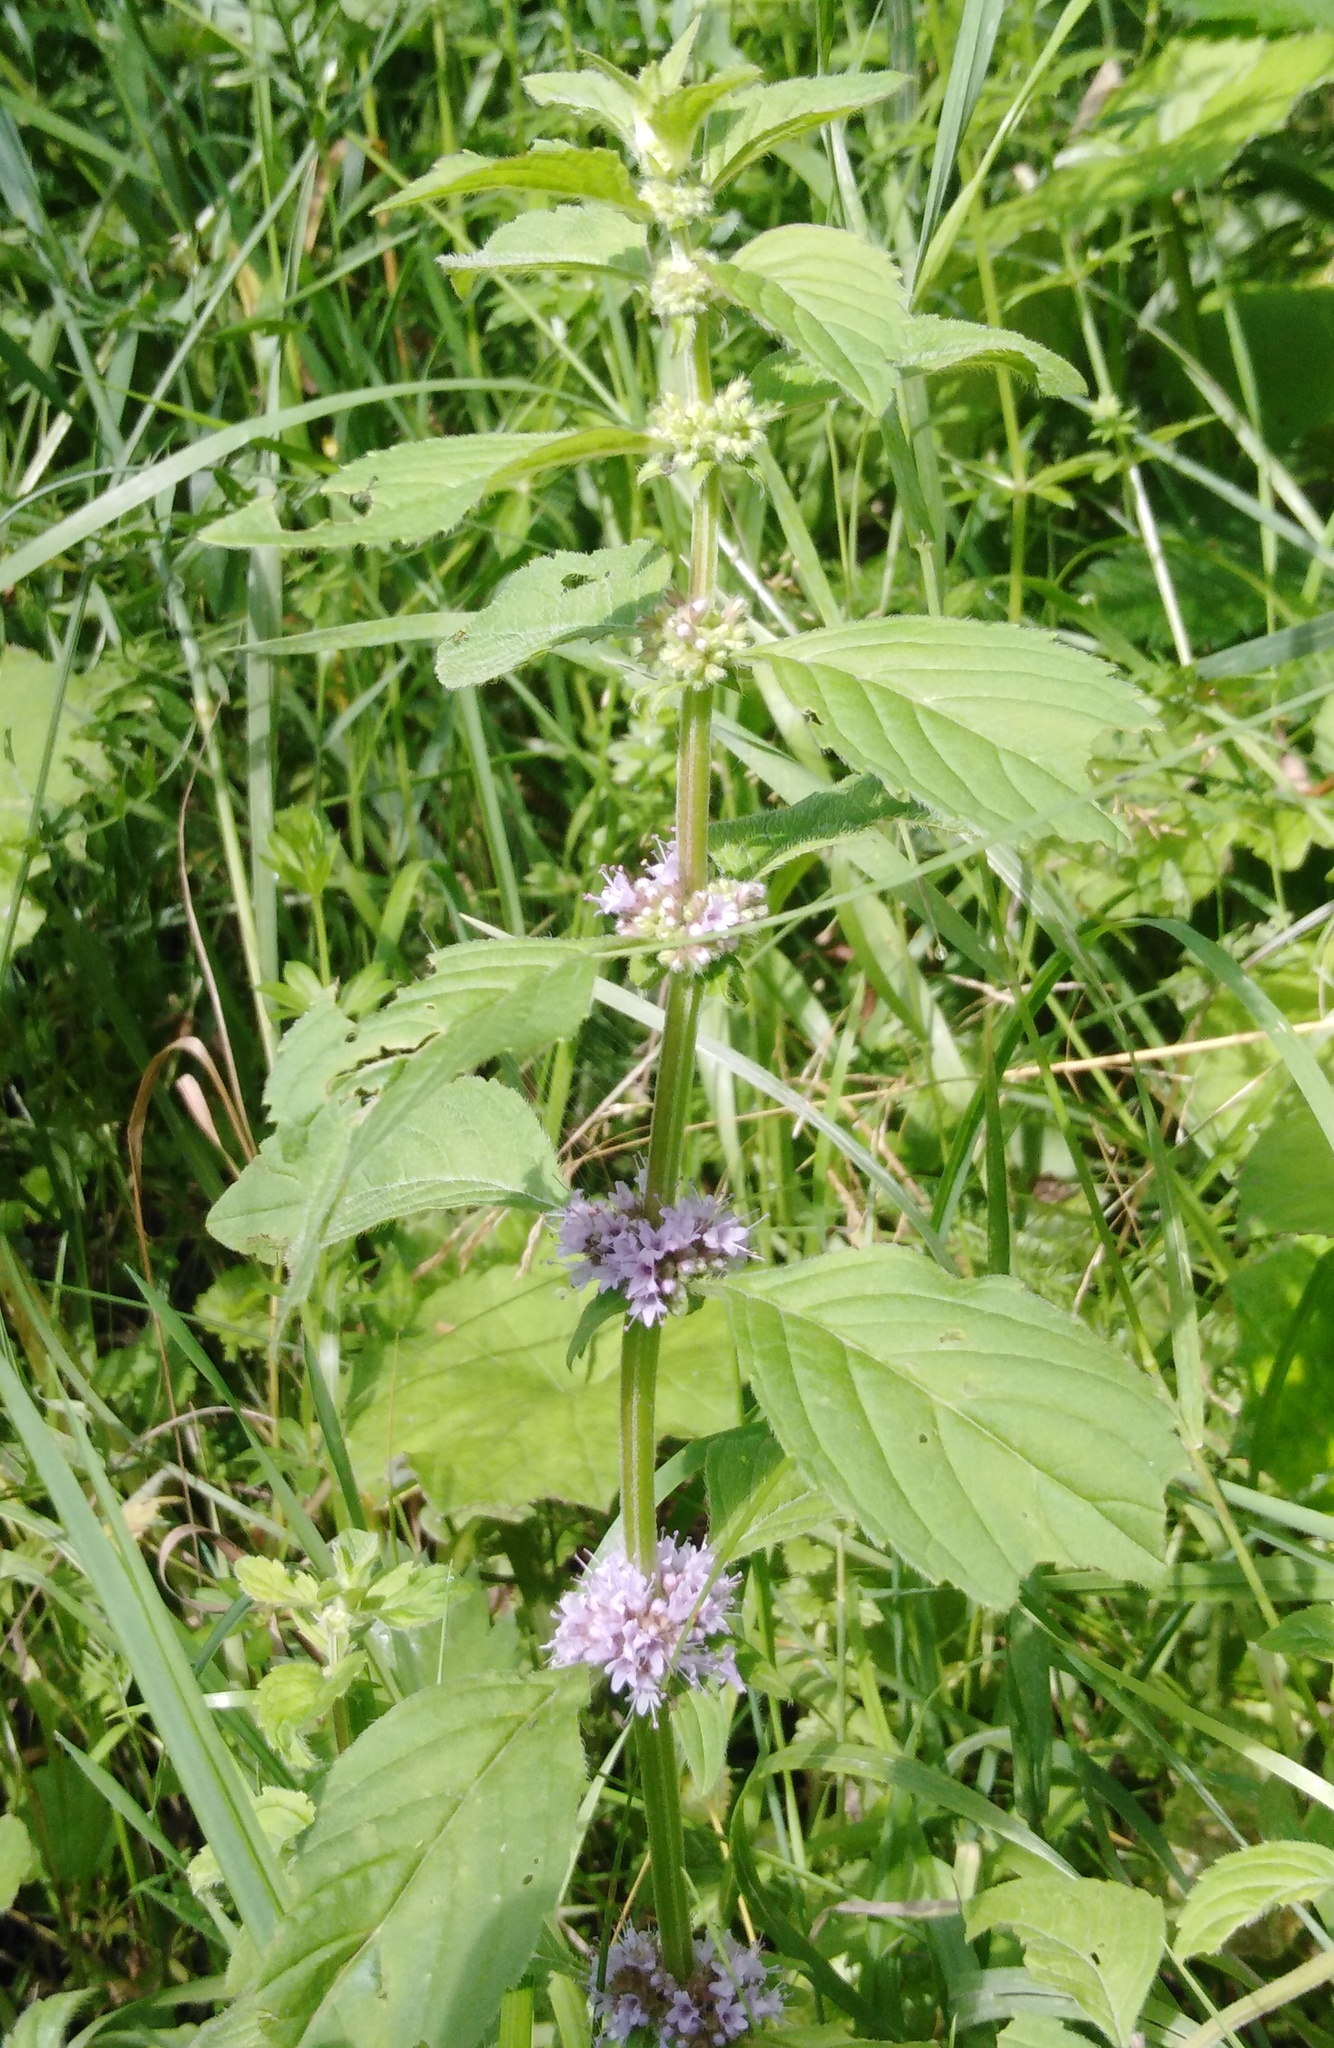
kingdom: Plantae
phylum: Tracheophyta
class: Magnoliopsida
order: Lamiales
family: Lamiaceae
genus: Mentha
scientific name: Mentha arvensis
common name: Corn mint
